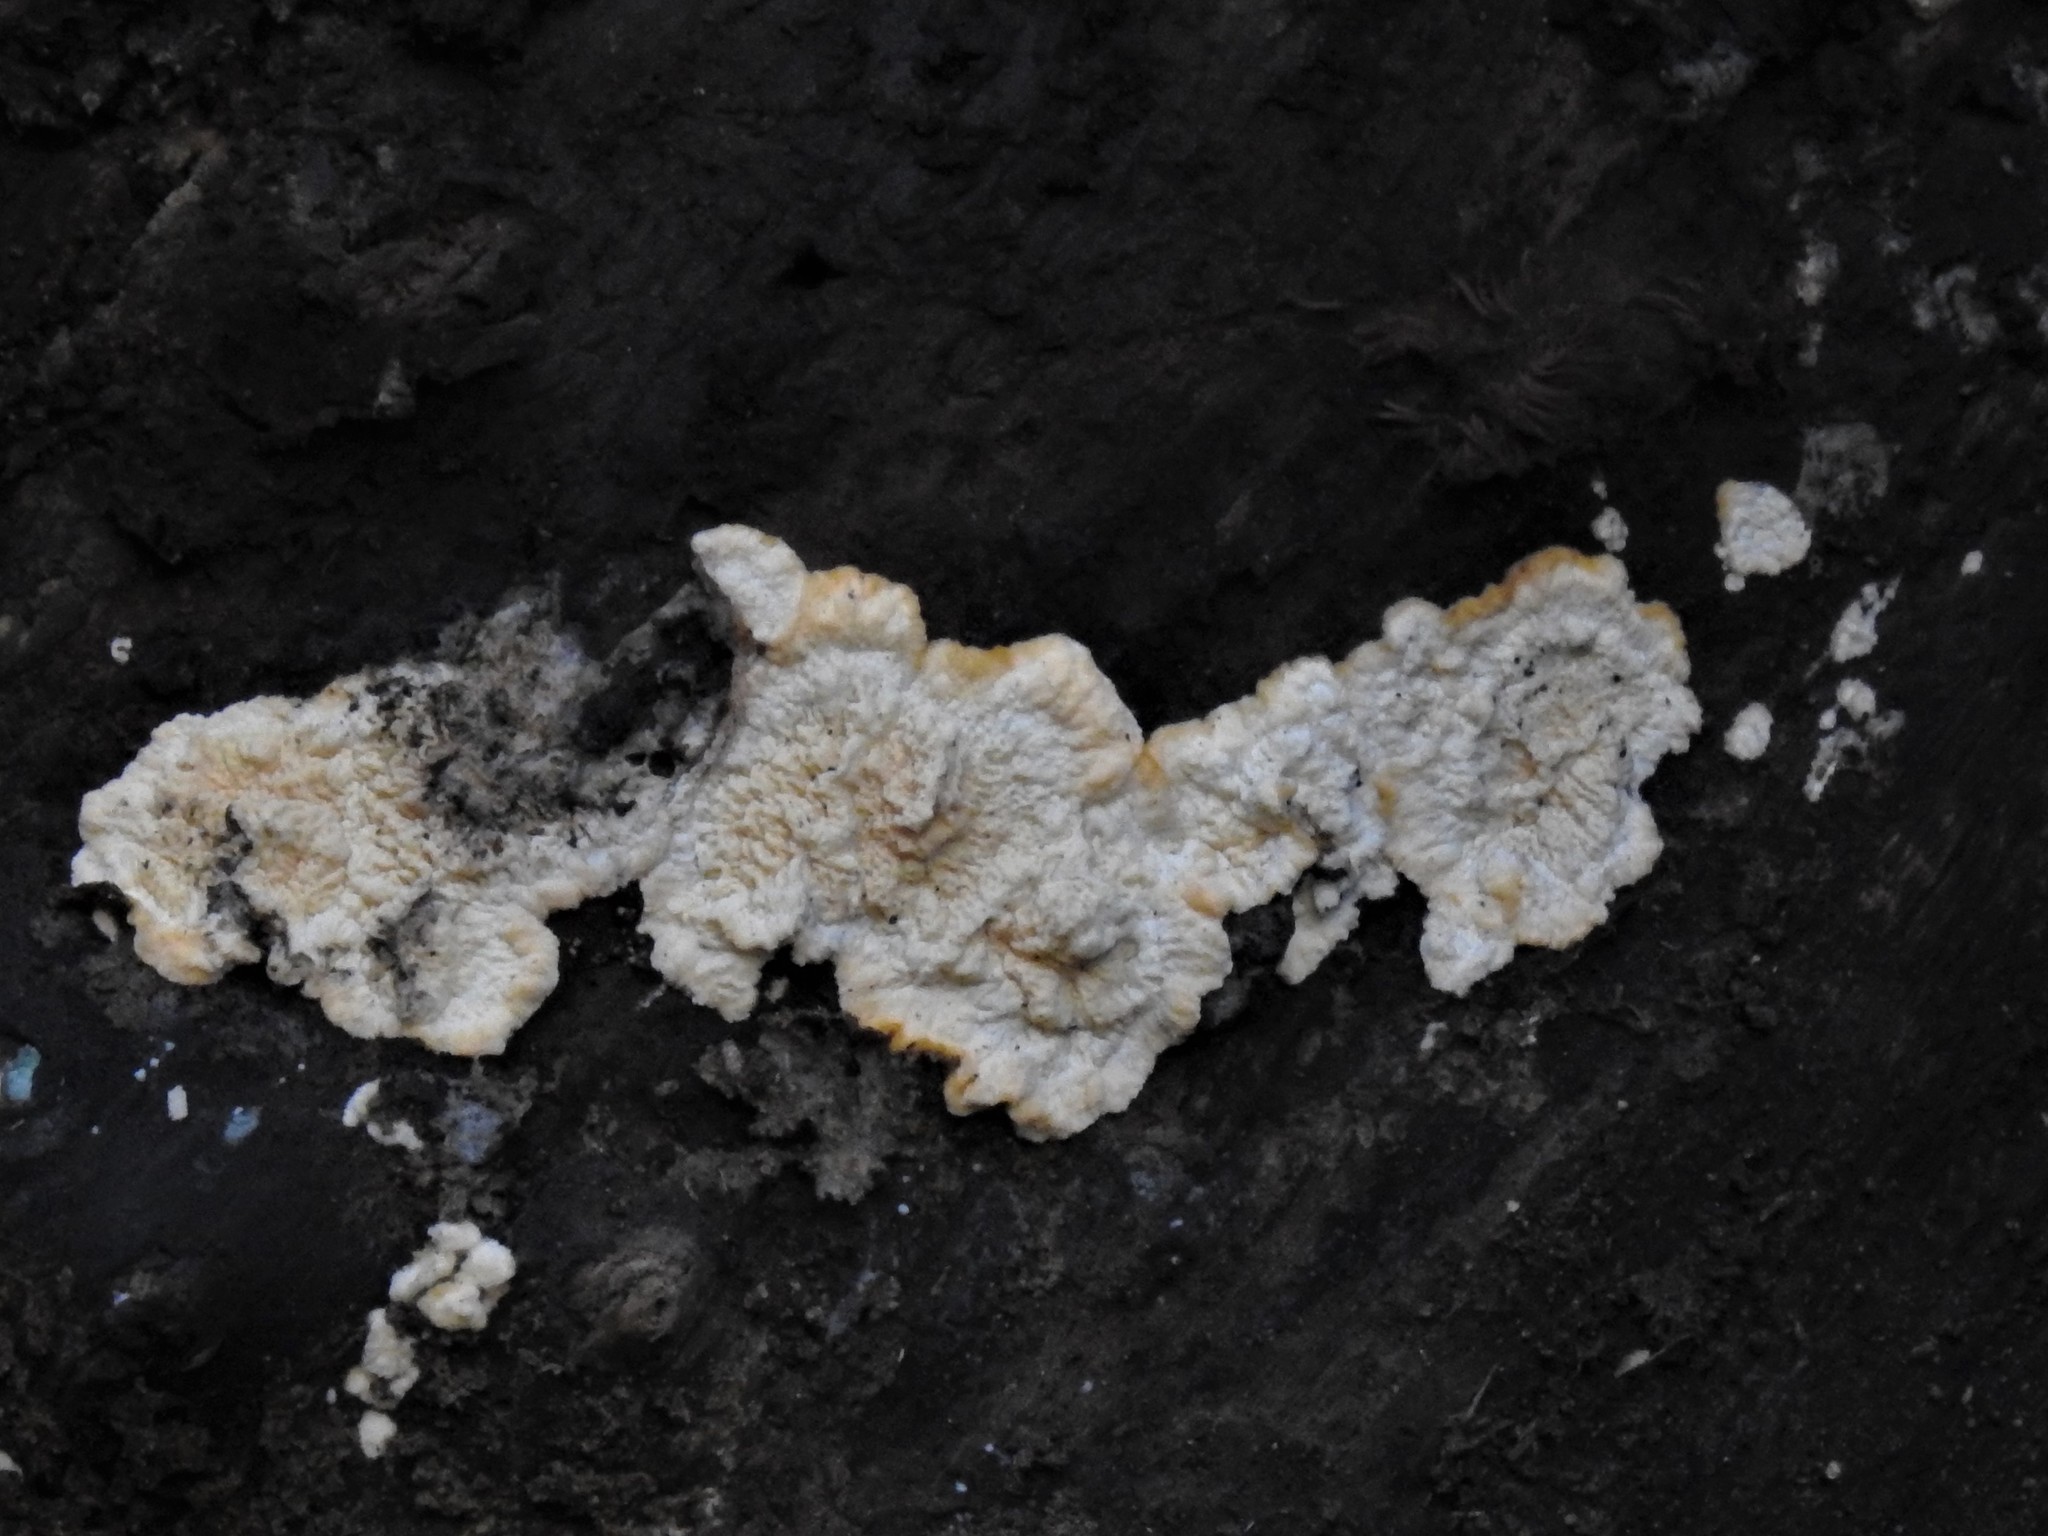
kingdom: Fungi
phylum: Basidiomycota
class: Agaricomycetes
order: Polyporales
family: Meruliaceae
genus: Phlebia
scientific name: Phlebia radiata
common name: Wrinkled crust
